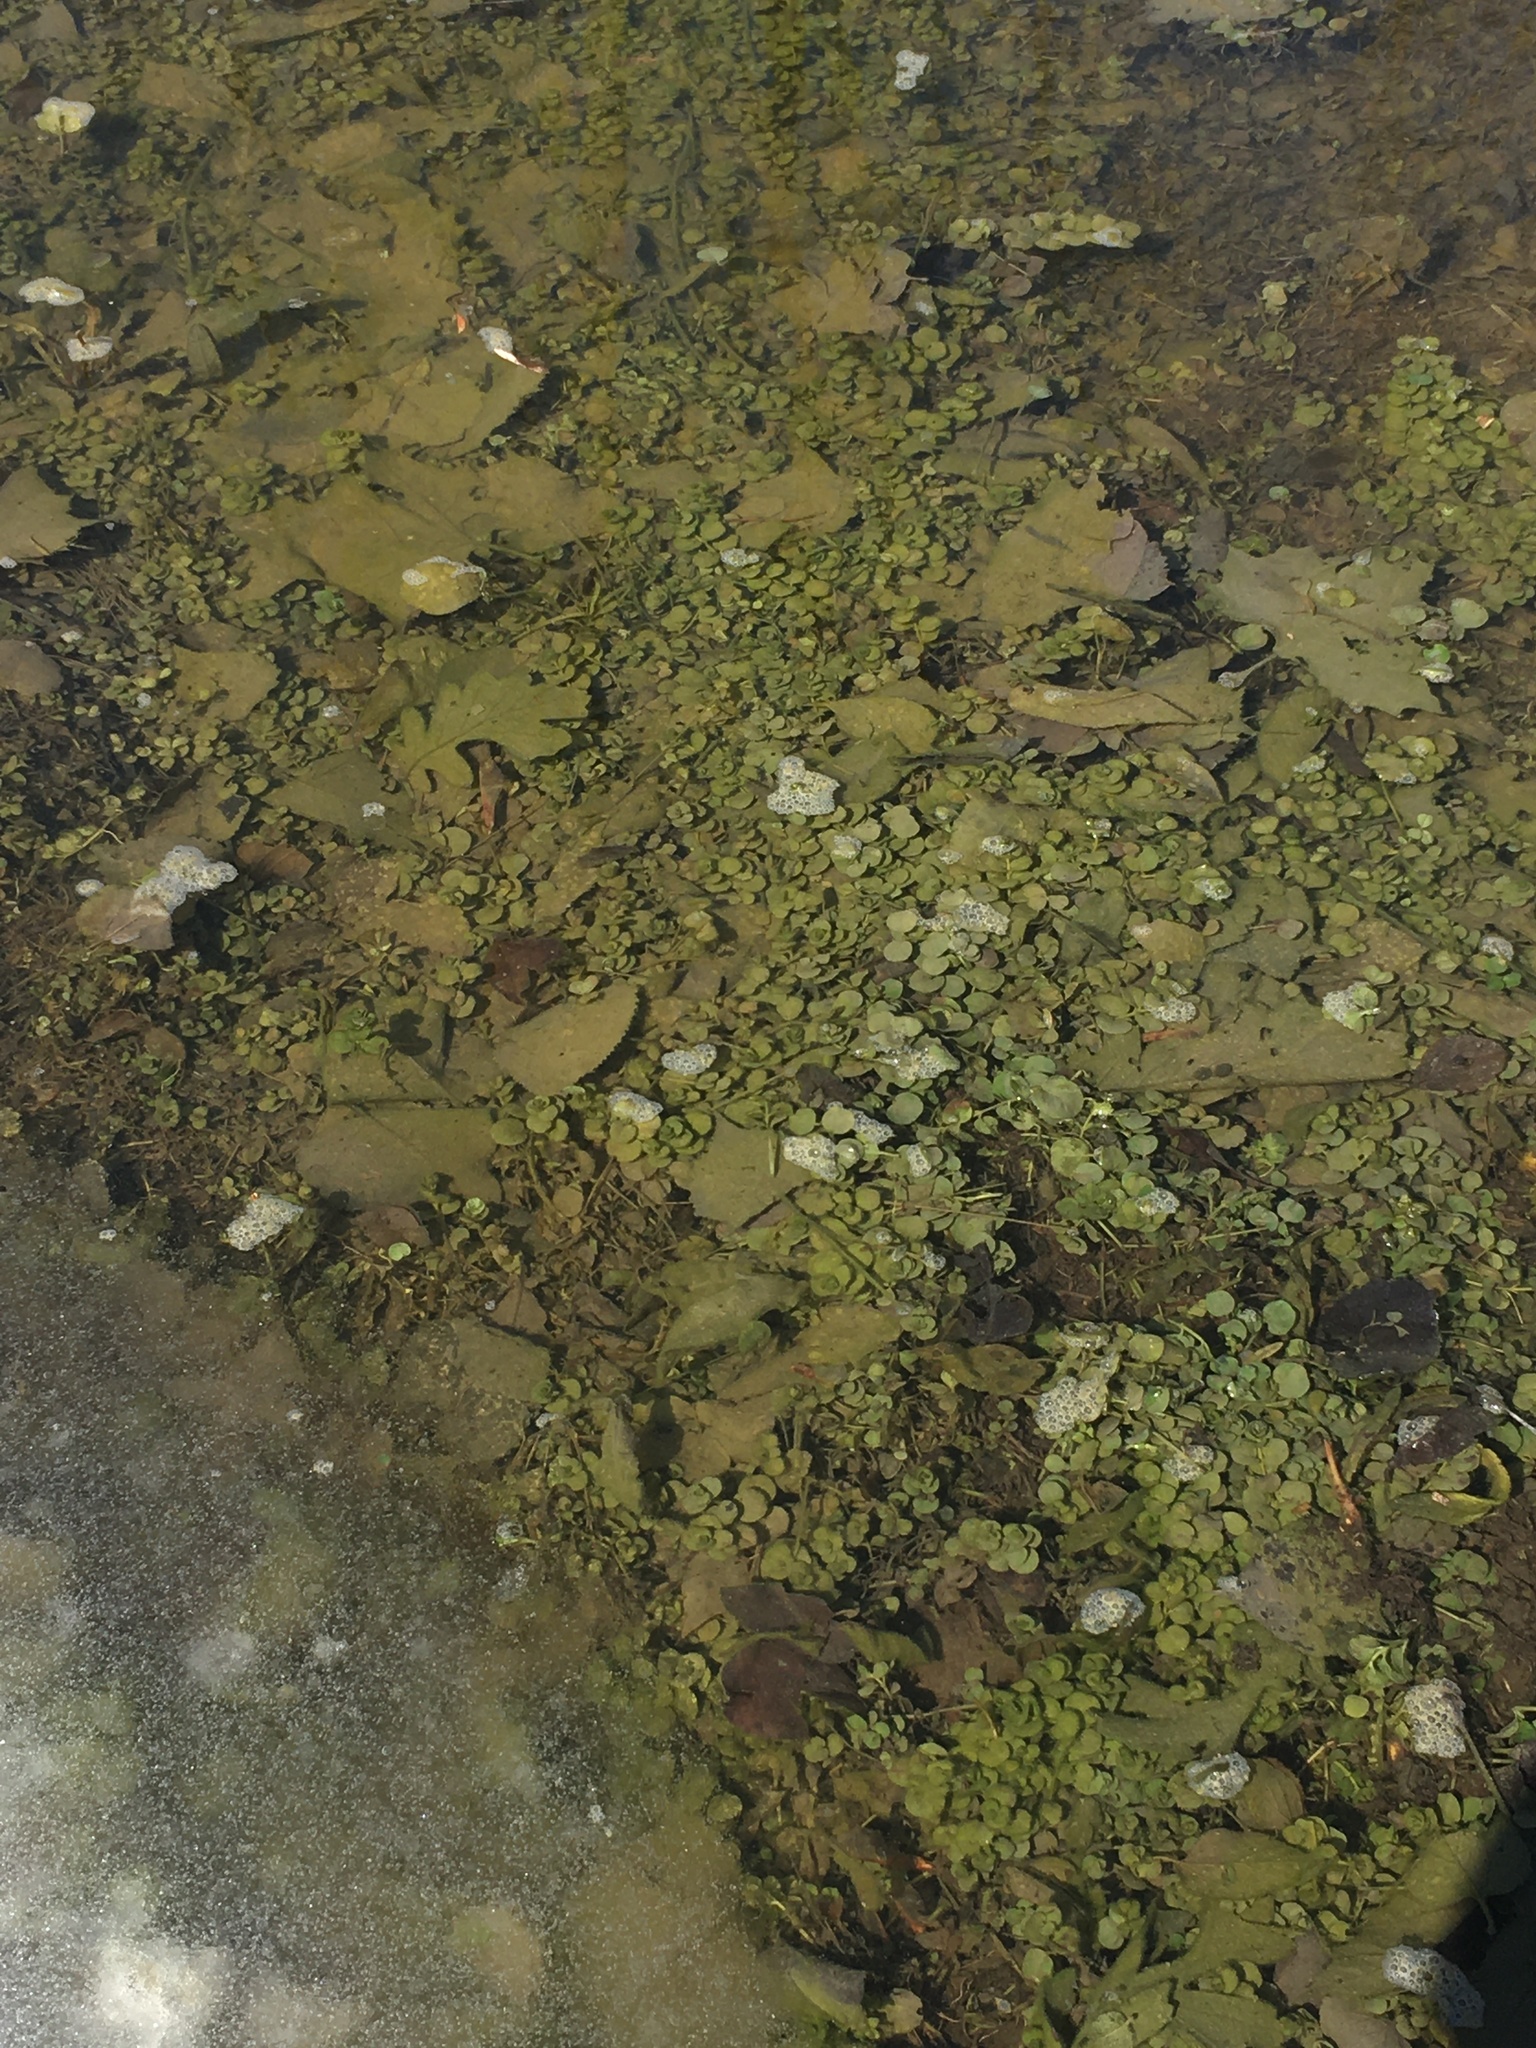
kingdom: Plantae
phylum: Tracheophyta
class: Magnoliopsida
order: Ericales
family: Primulaceae
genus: Lysimachia
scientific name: Lysimachia nummularia
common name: Moneywort
